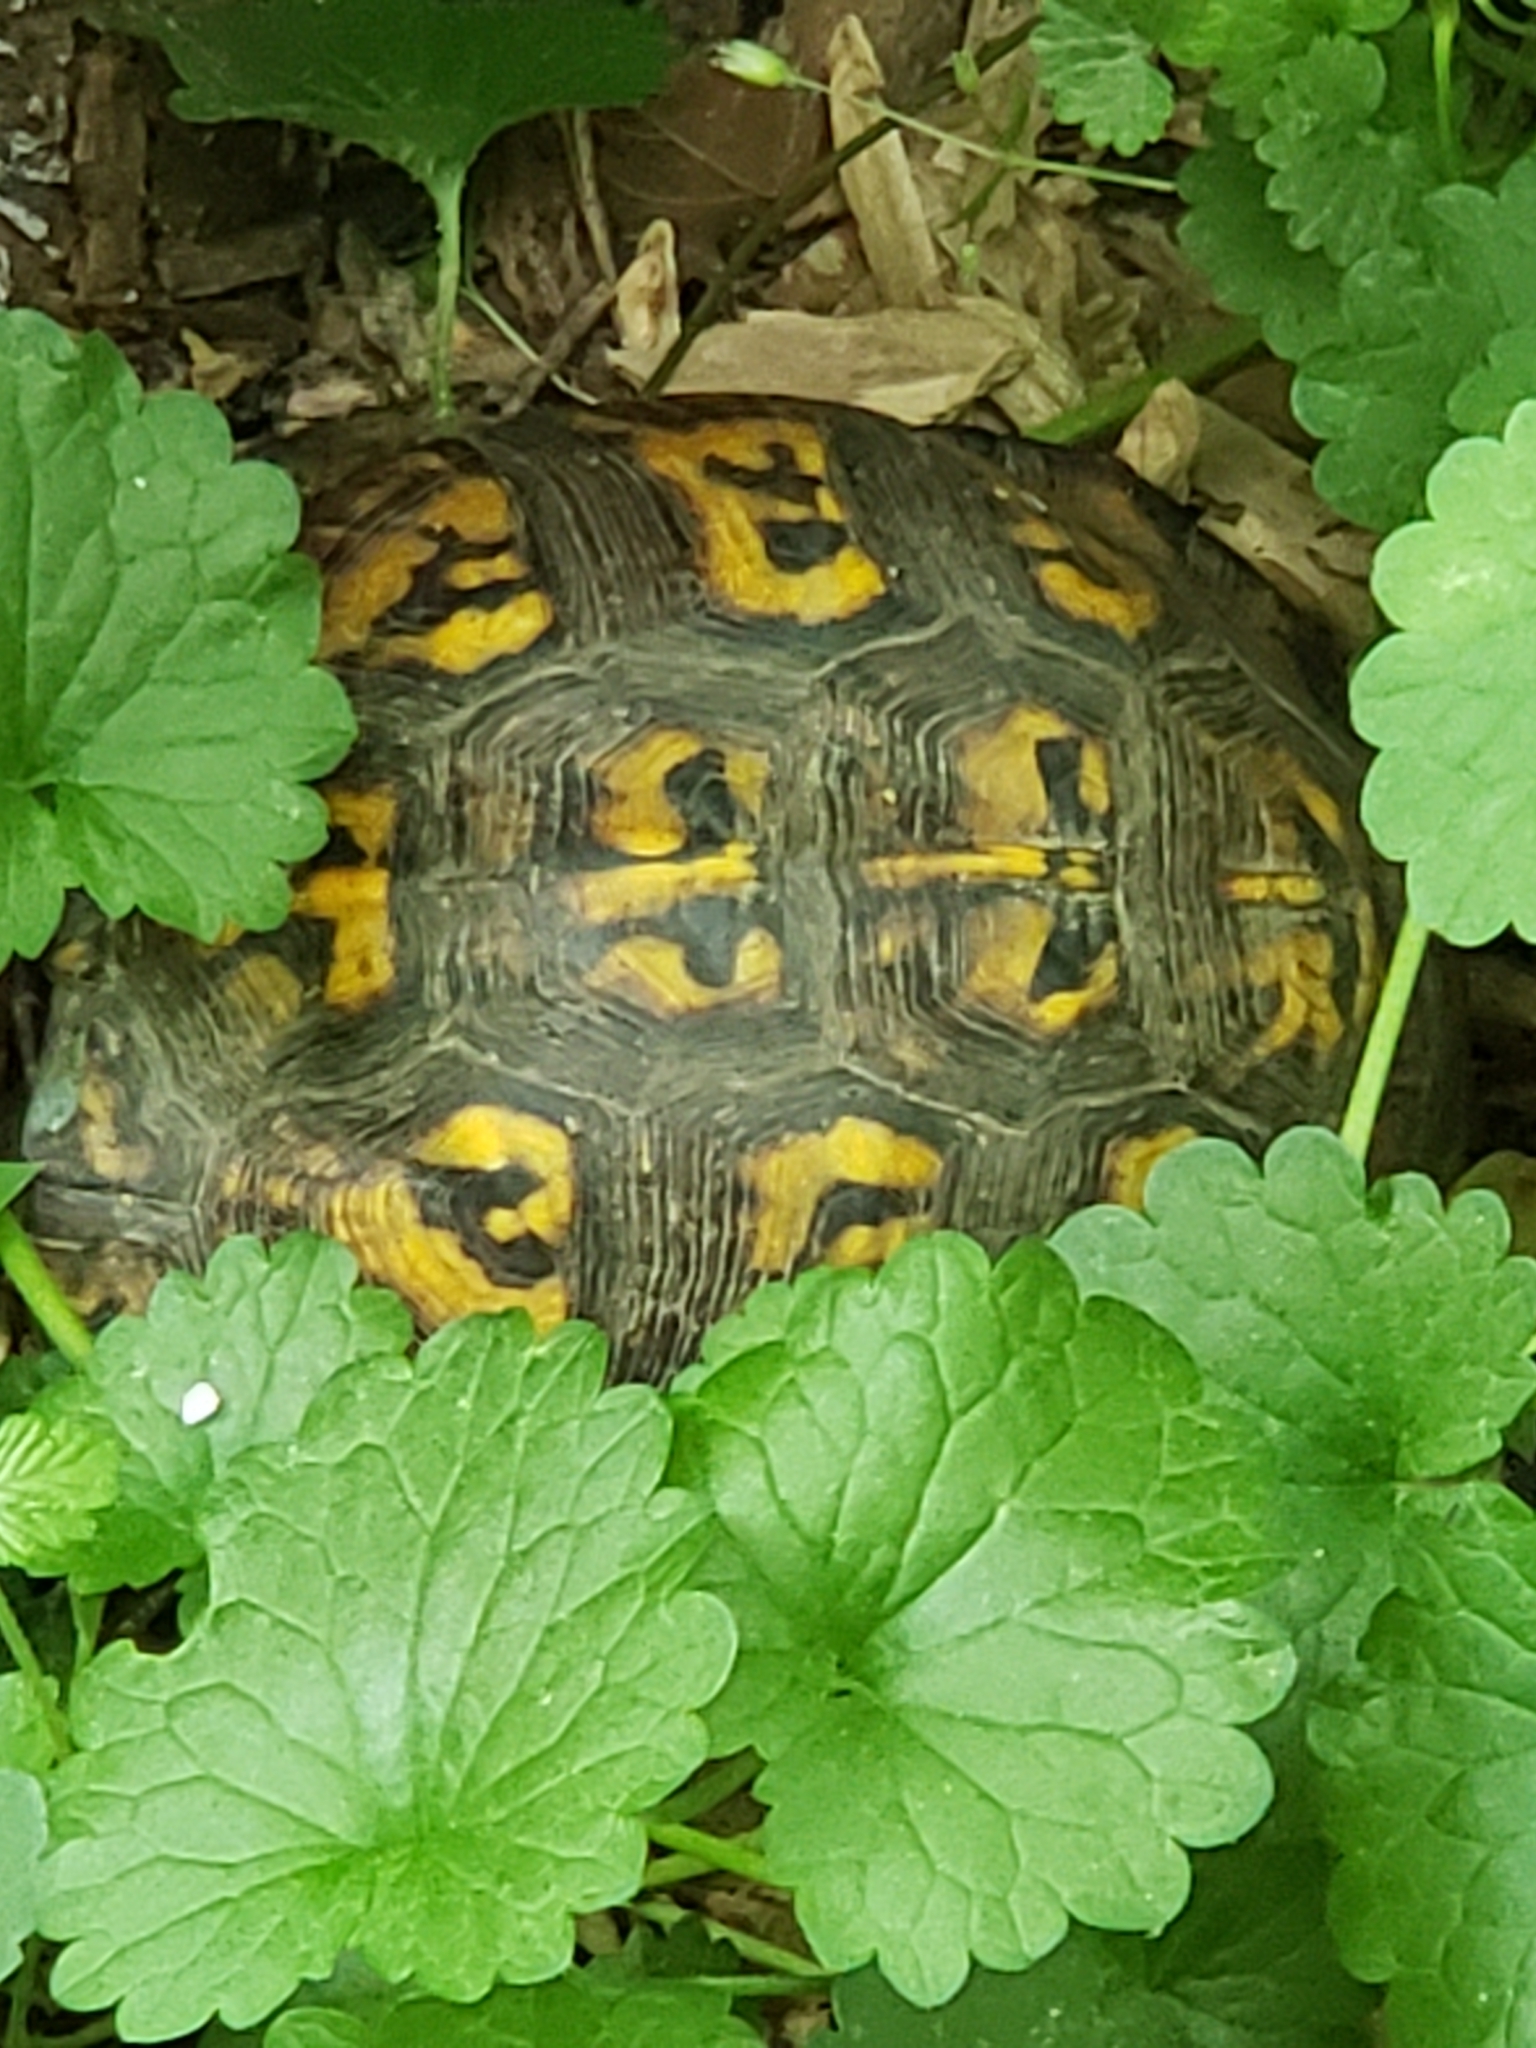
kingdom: Animalia
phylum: Chordata
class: Testudines
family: Emydidae
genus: Terrapene
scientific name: Terrapene carolina
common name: Common box turtle
